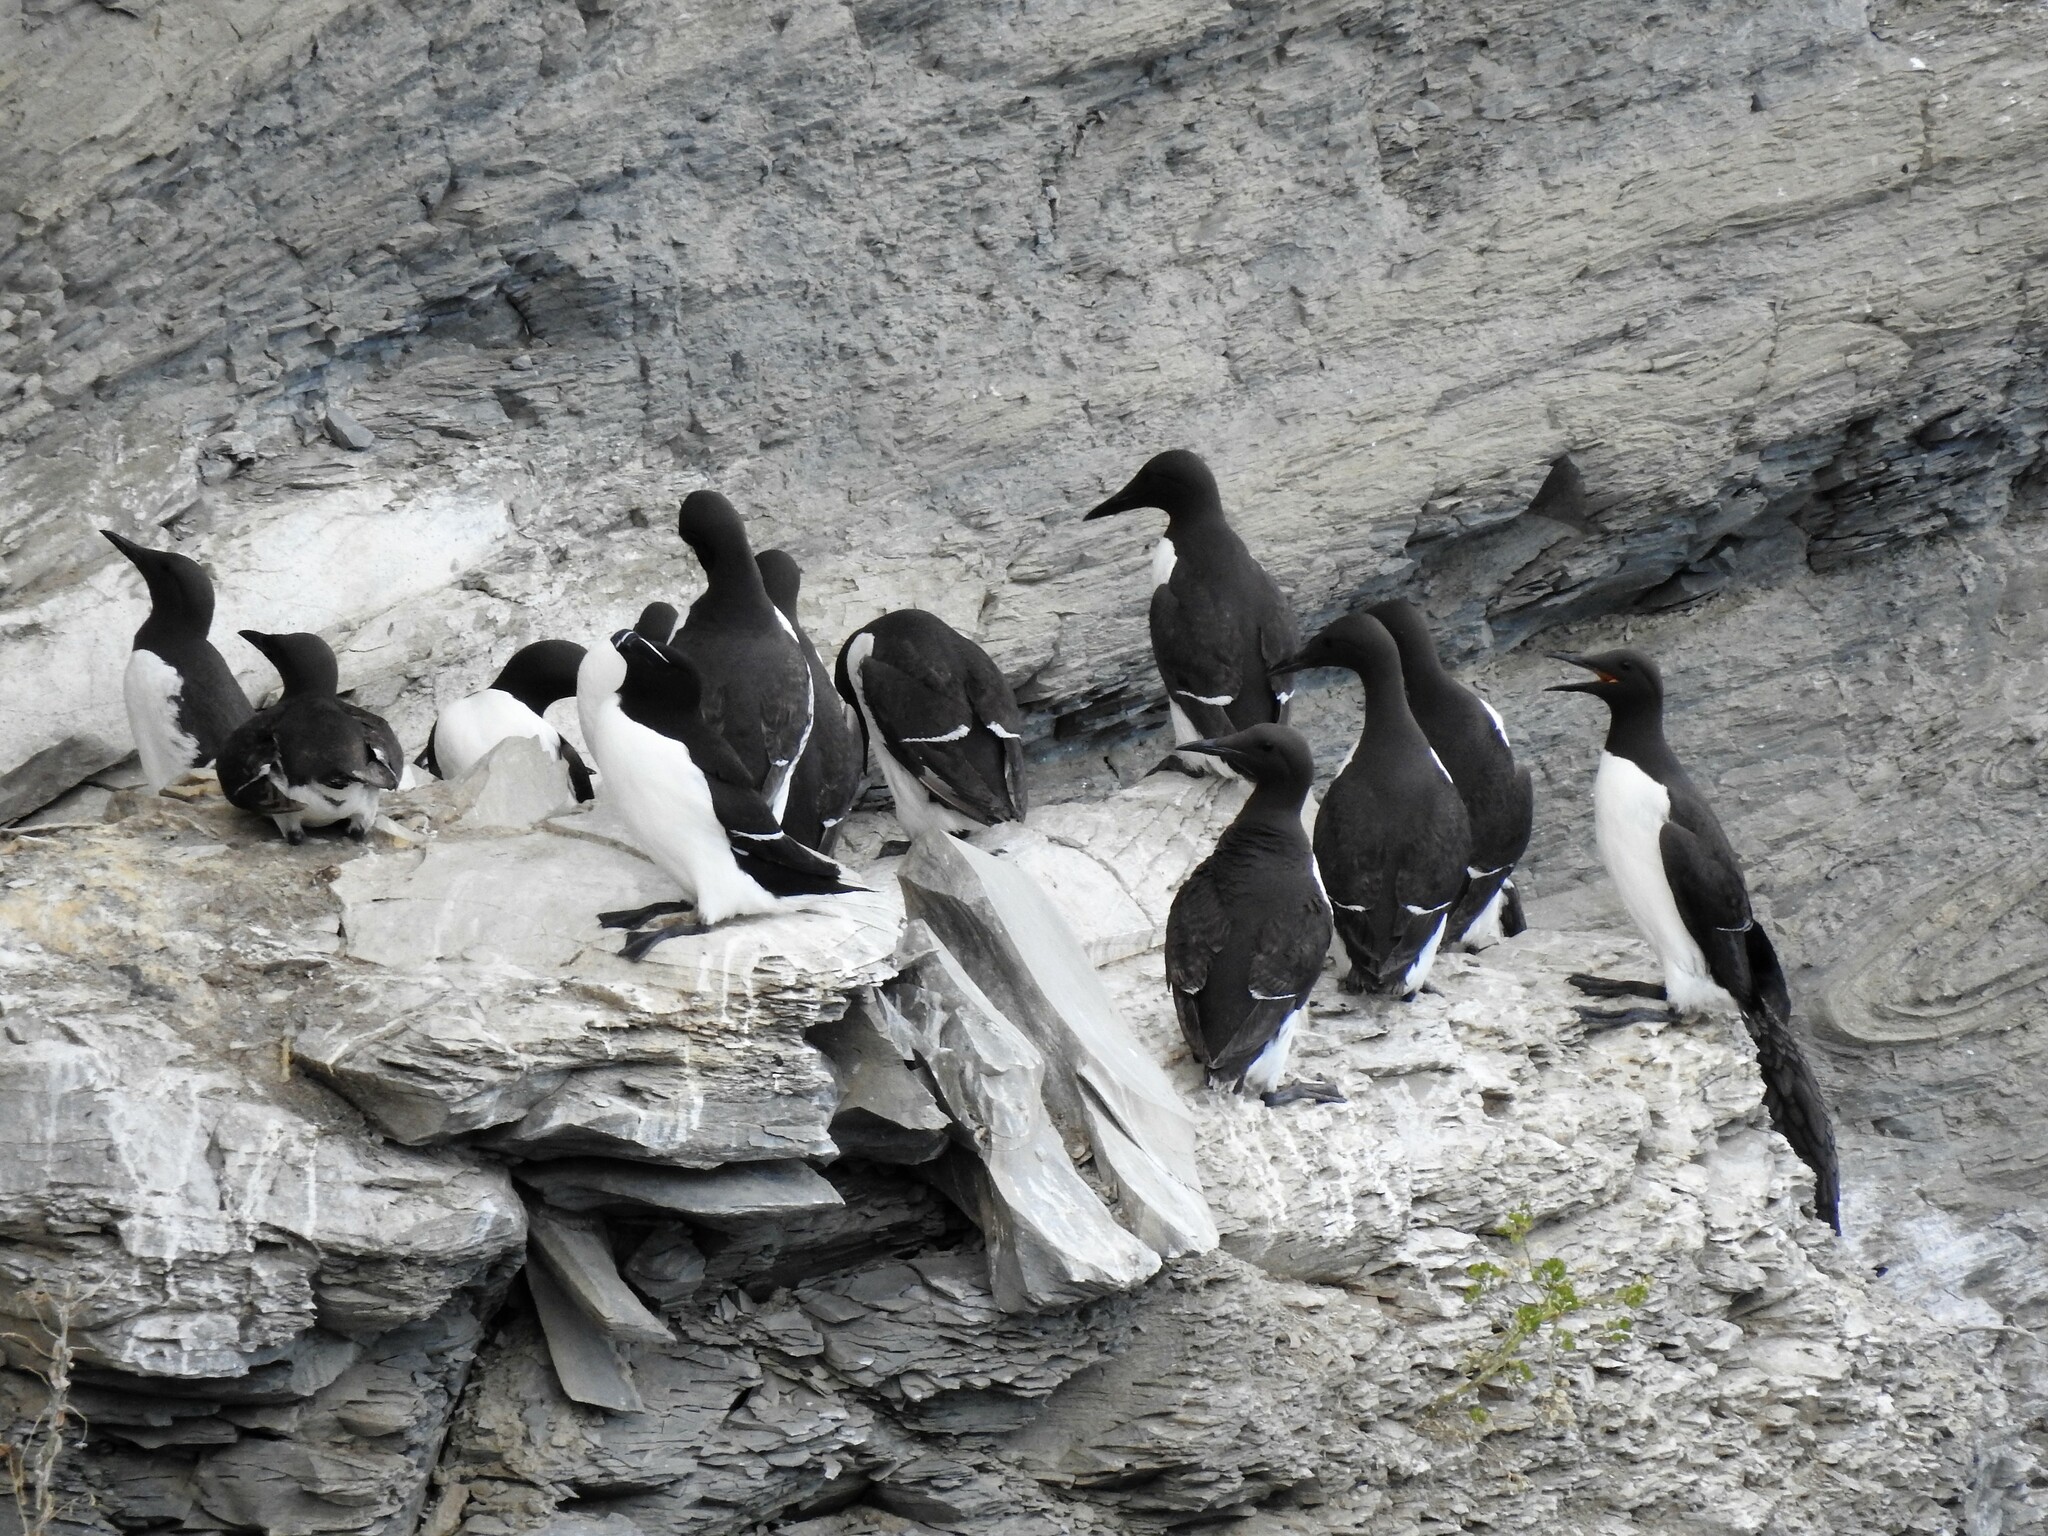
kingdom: Animalia
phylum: Chordata
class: Aves
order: Charadriiformes
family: Alcidae
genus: Uria
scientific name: Uria aalge
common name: Common murre
